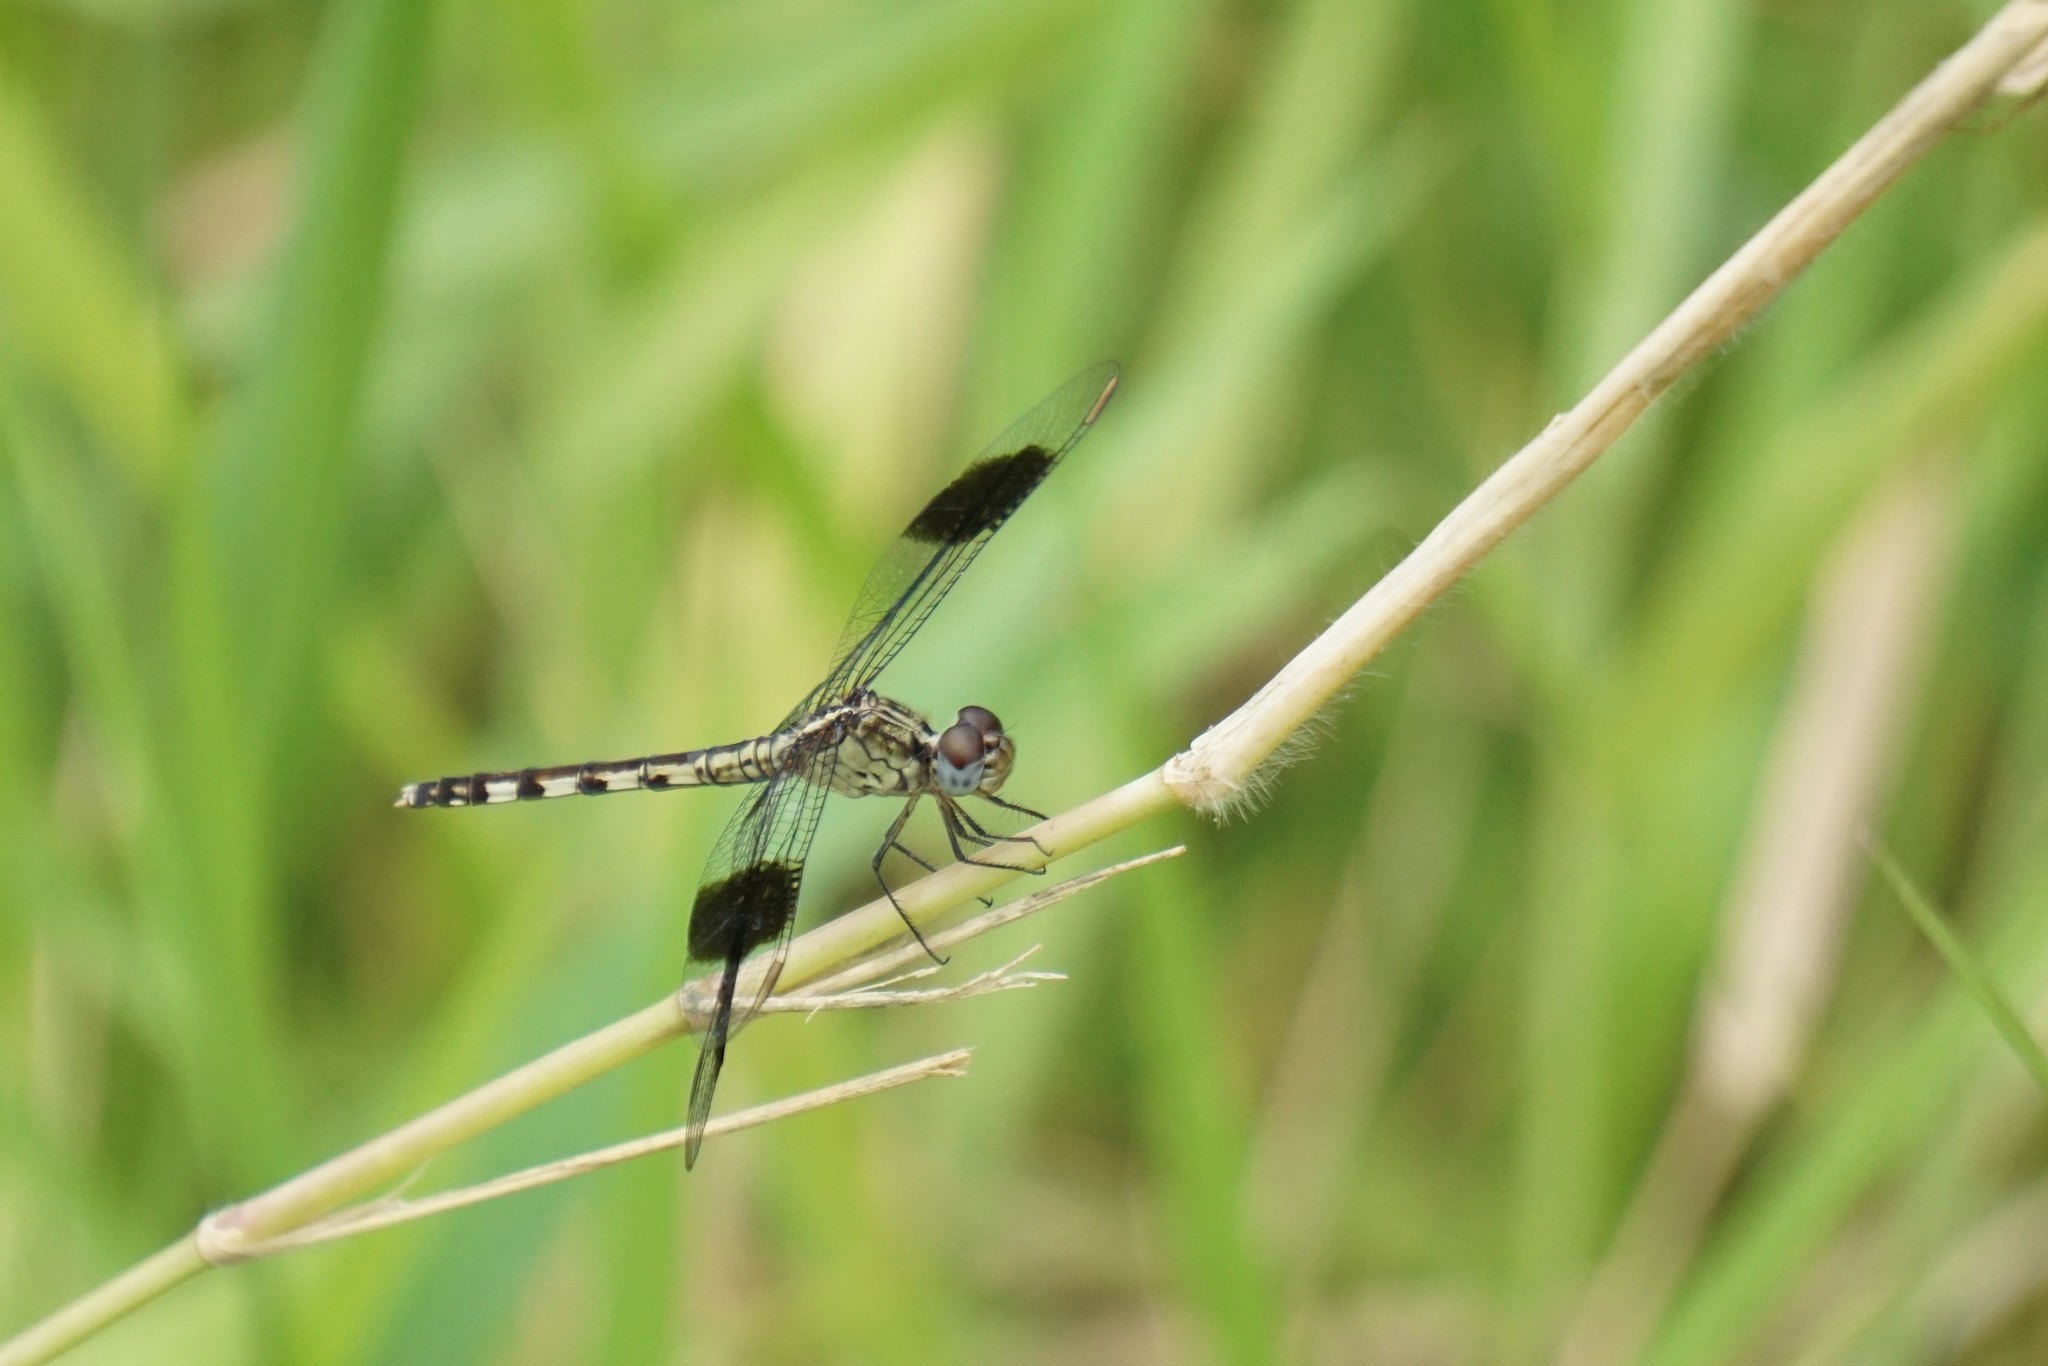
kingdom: Animalia
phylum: Arthropoda
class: Insecta
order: Odonata
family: Libellulidae
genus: Erythrodiplax
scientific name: Erythrodiplax umbrata
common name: Band-winged dragonlet
